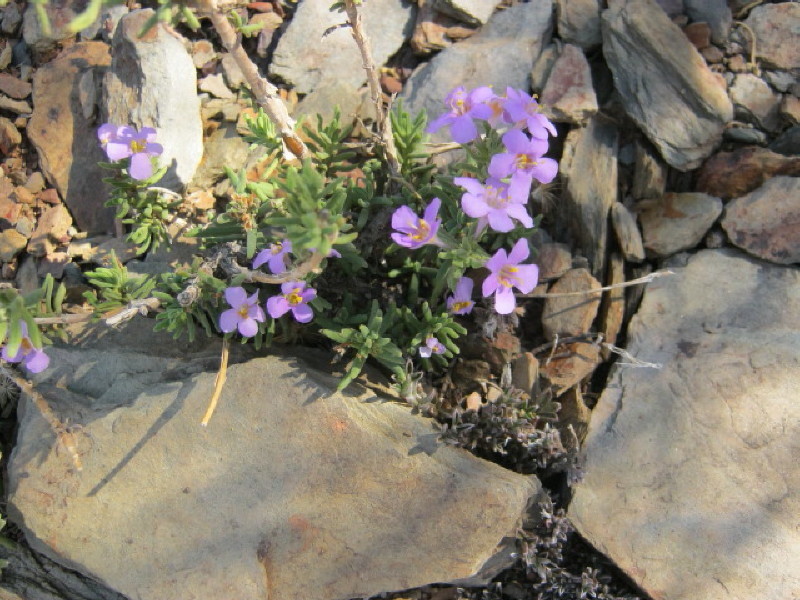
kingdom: Plantae
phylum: Tracheophyta
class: Magnoliopsida
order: Lamiales
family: Scrophulariaceae
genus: Chaenostoma
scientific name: Chaenostoma revolutum
